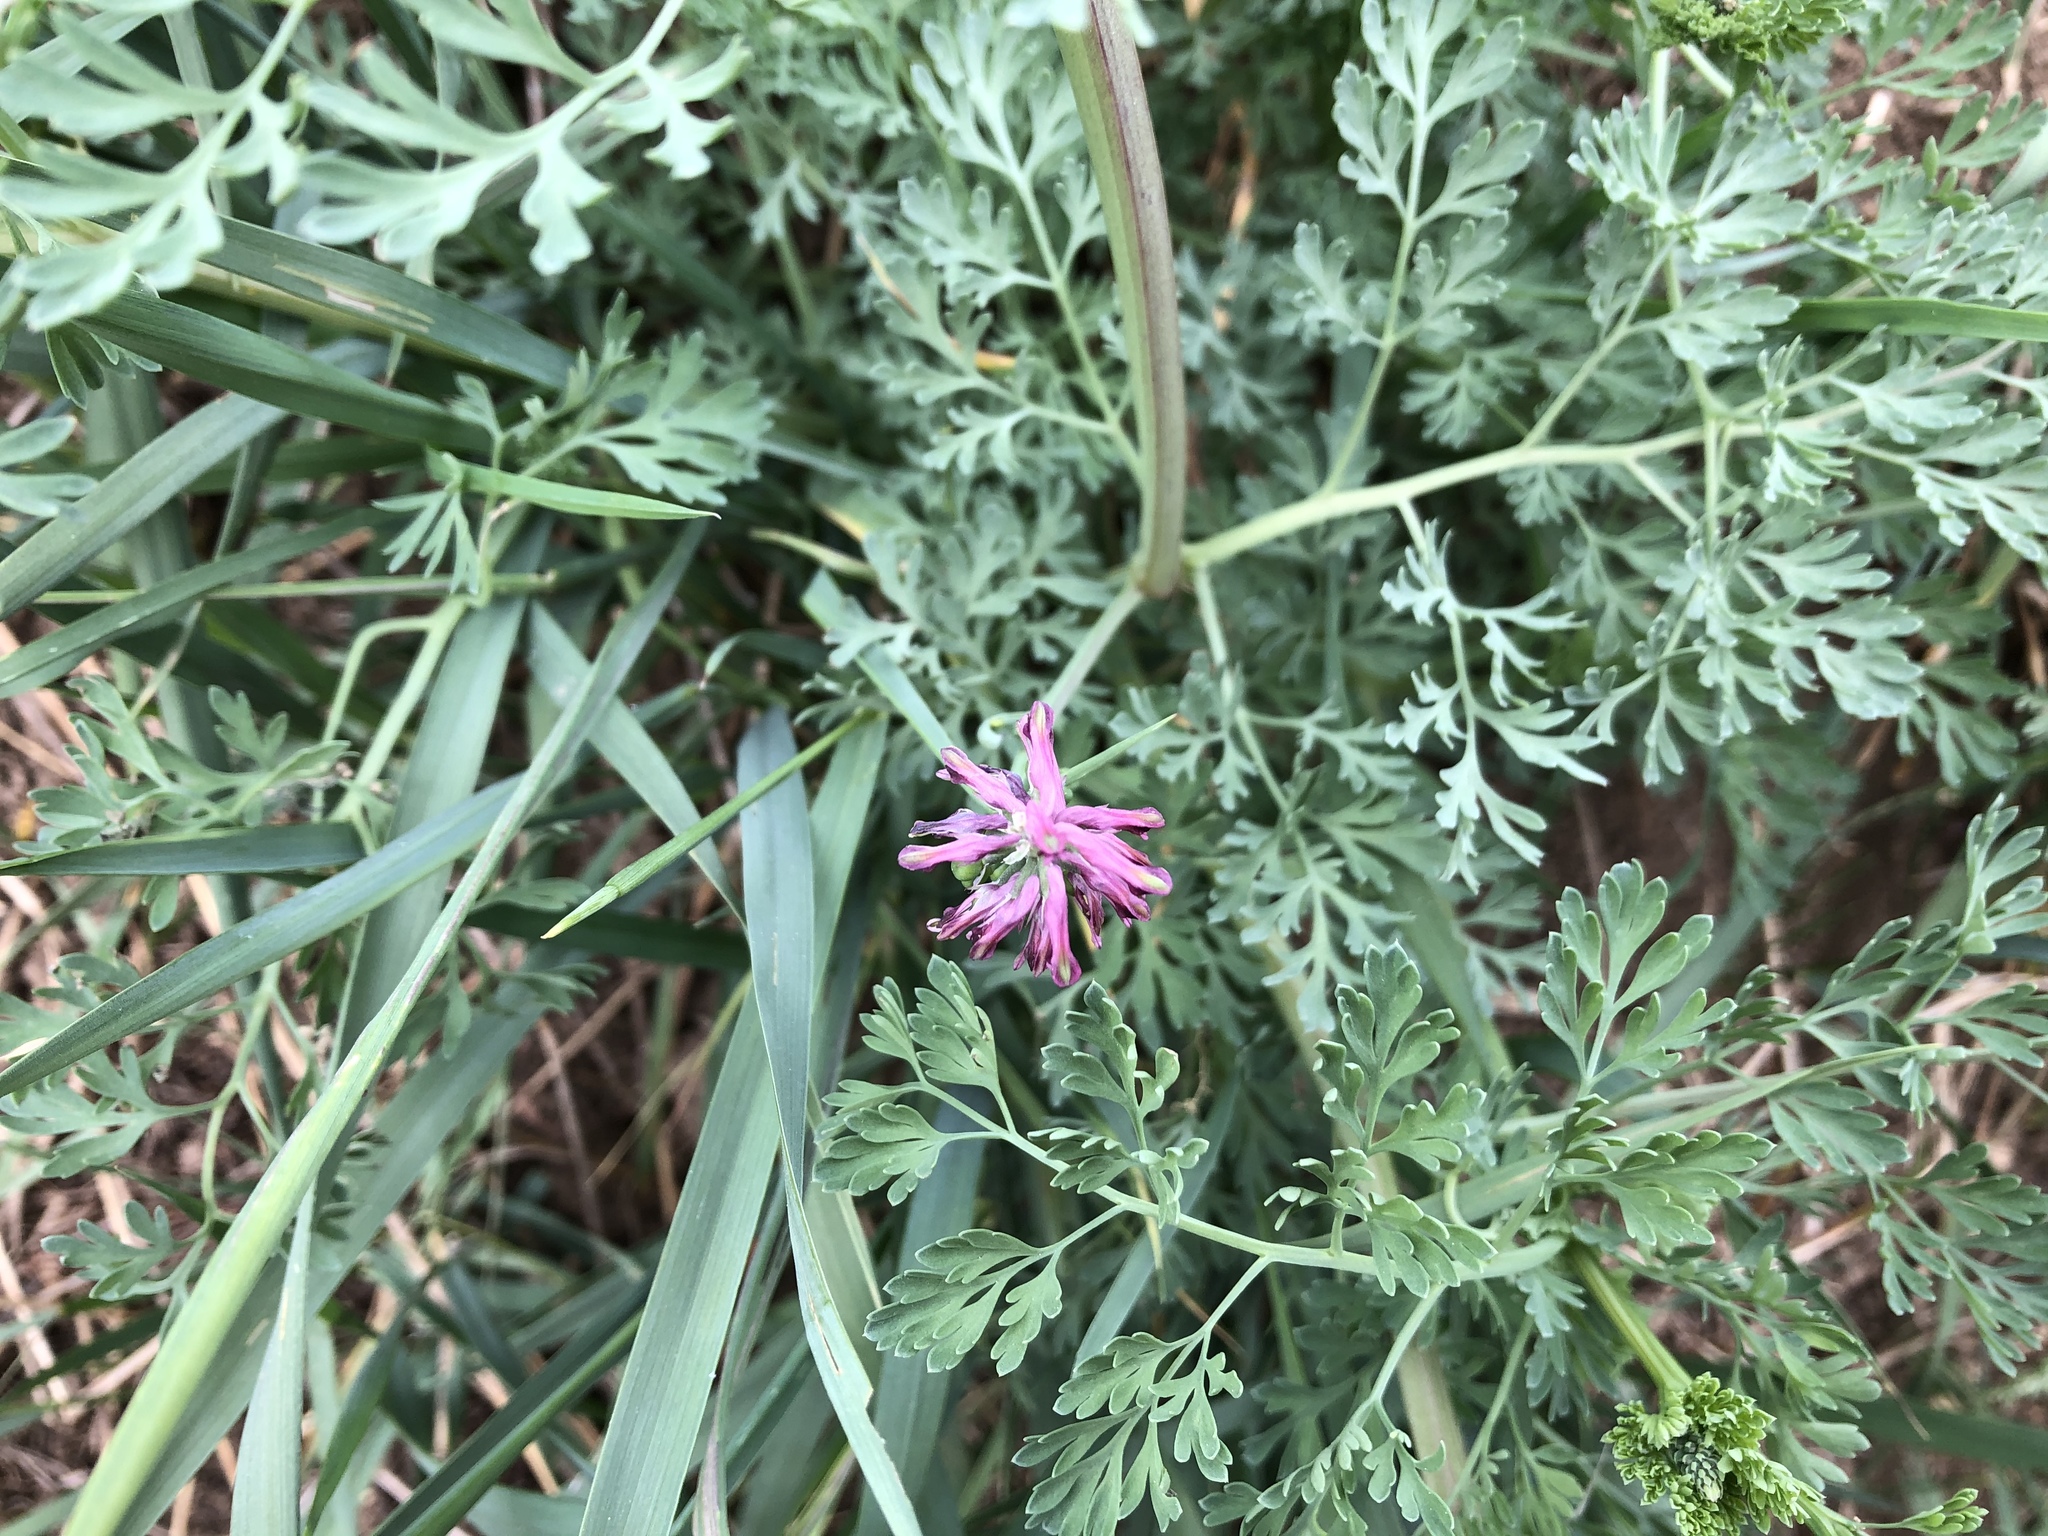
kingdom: Plantae
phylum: Tracheophyta
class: Magnoliopsida
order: Ranunculales
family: Papaveraceae
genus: Fumaria
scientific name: Fumaria officinalis
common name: Common fumitory
